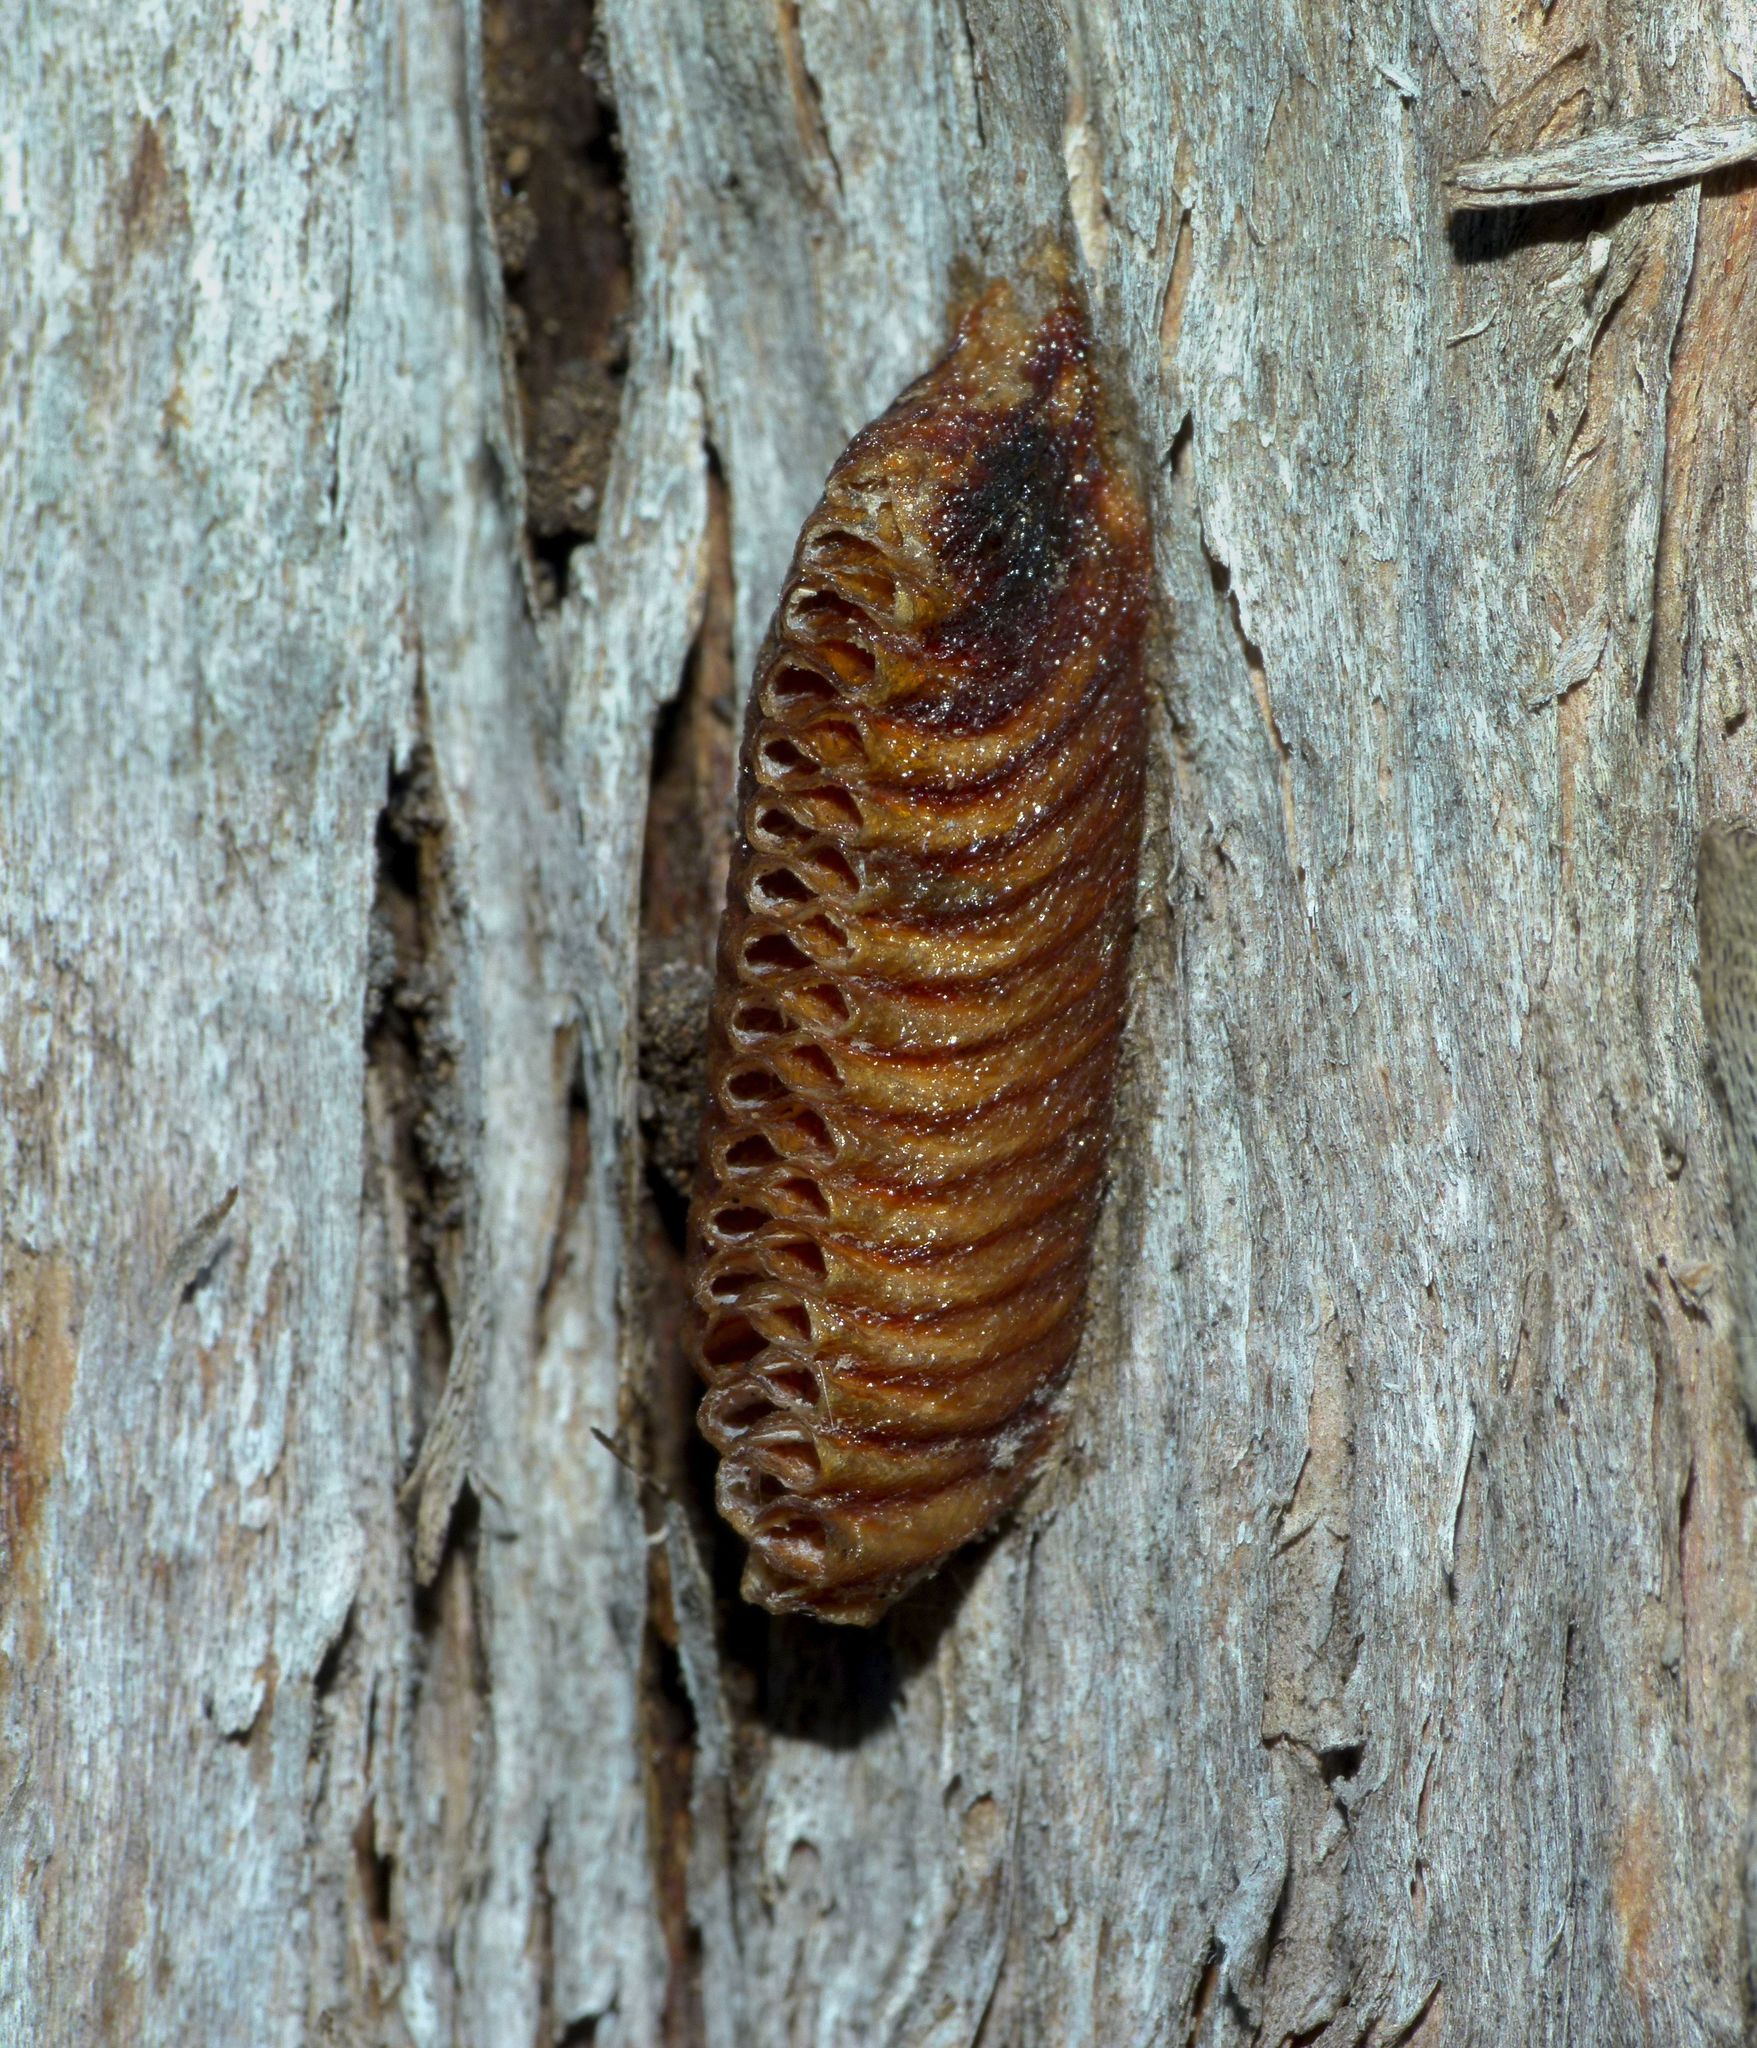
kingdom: Animalia
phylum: Arthropoda
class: Insecta
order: Mantodea
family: Mantidae
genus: Orthodera
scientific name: Orthodera novaezealandiae
